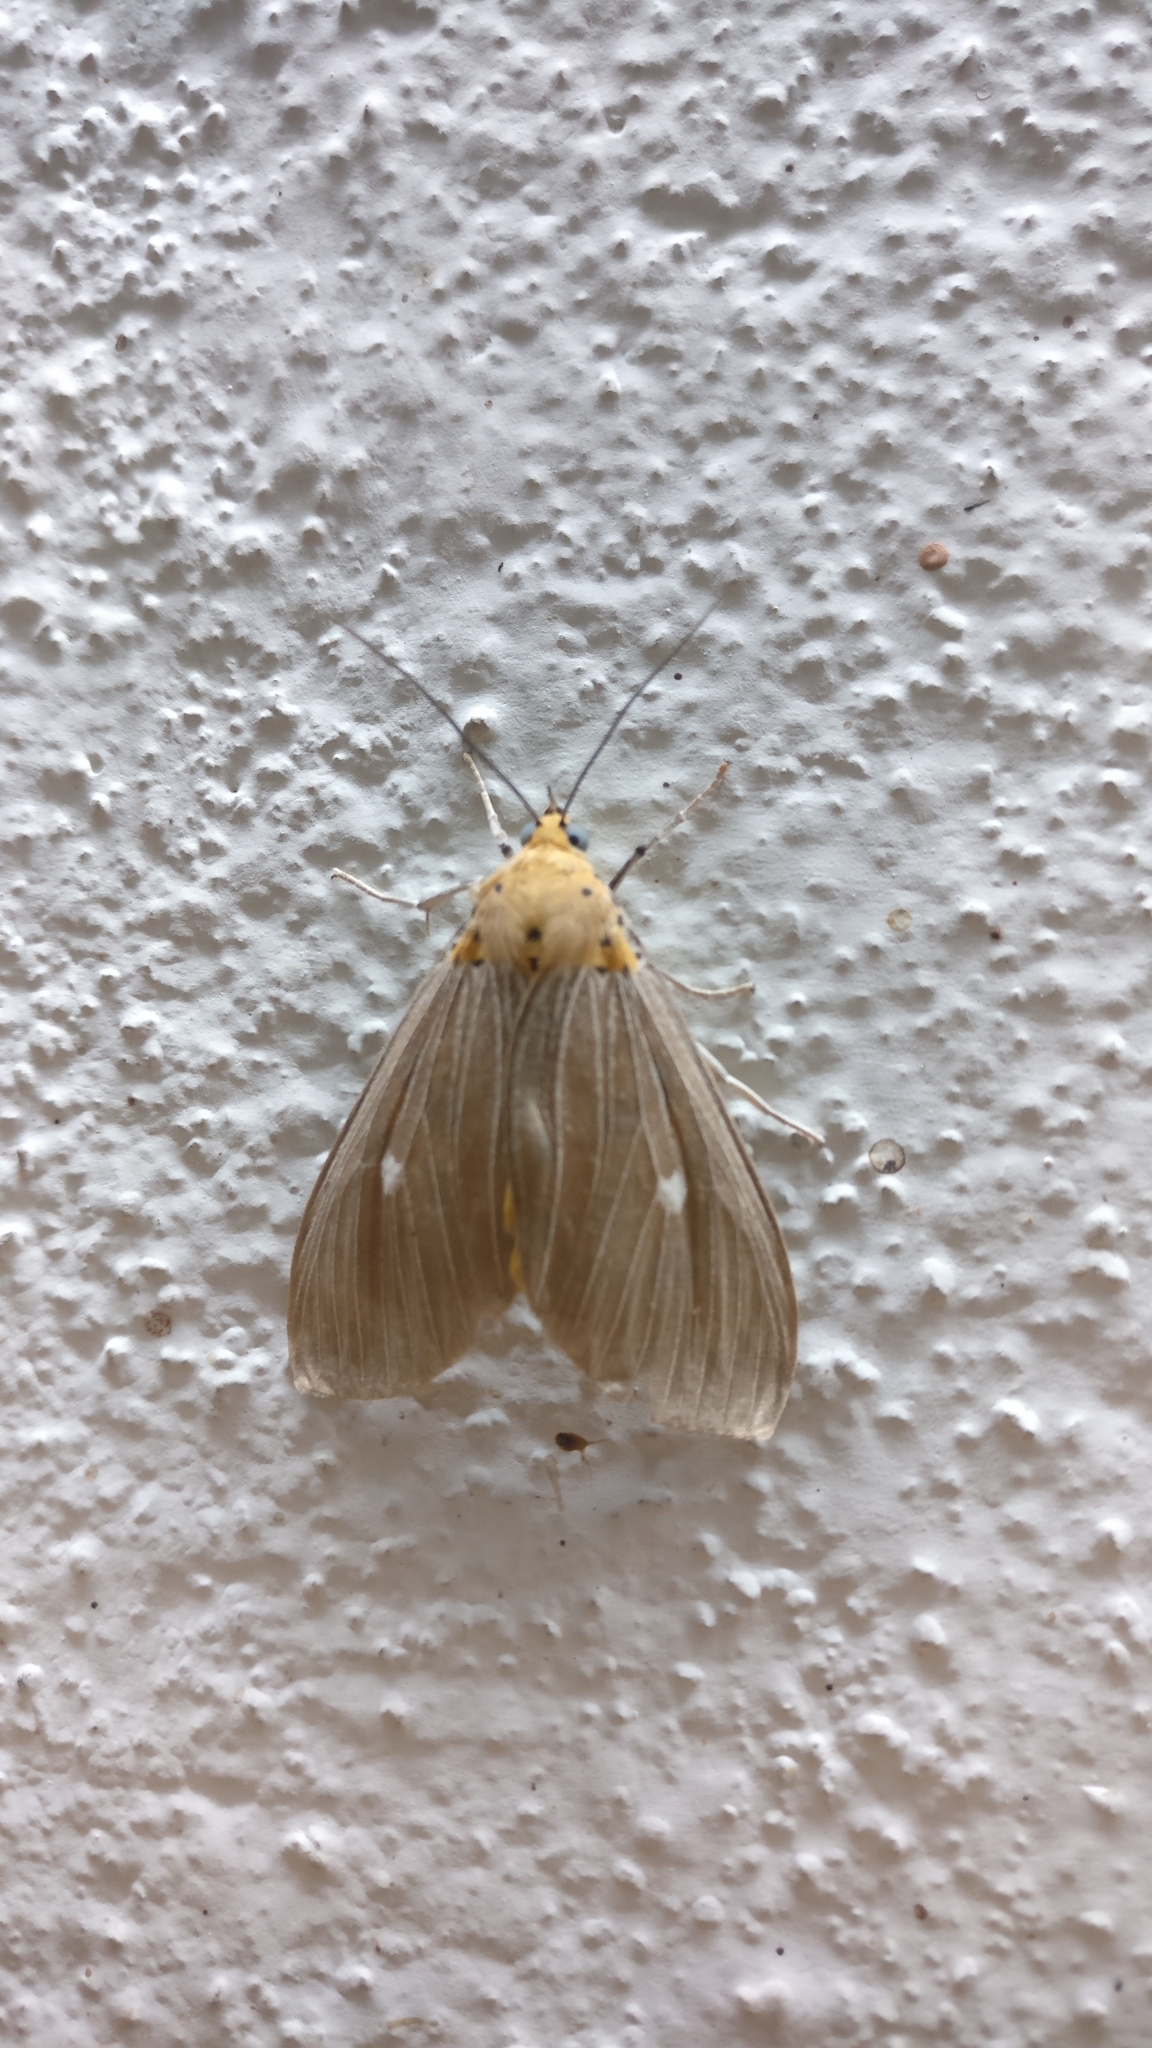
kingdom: Animalia
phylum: Arthropoda
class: Insecta
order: Lepidoptera
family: Erebidae
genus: Asota
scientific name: Asota caricae
